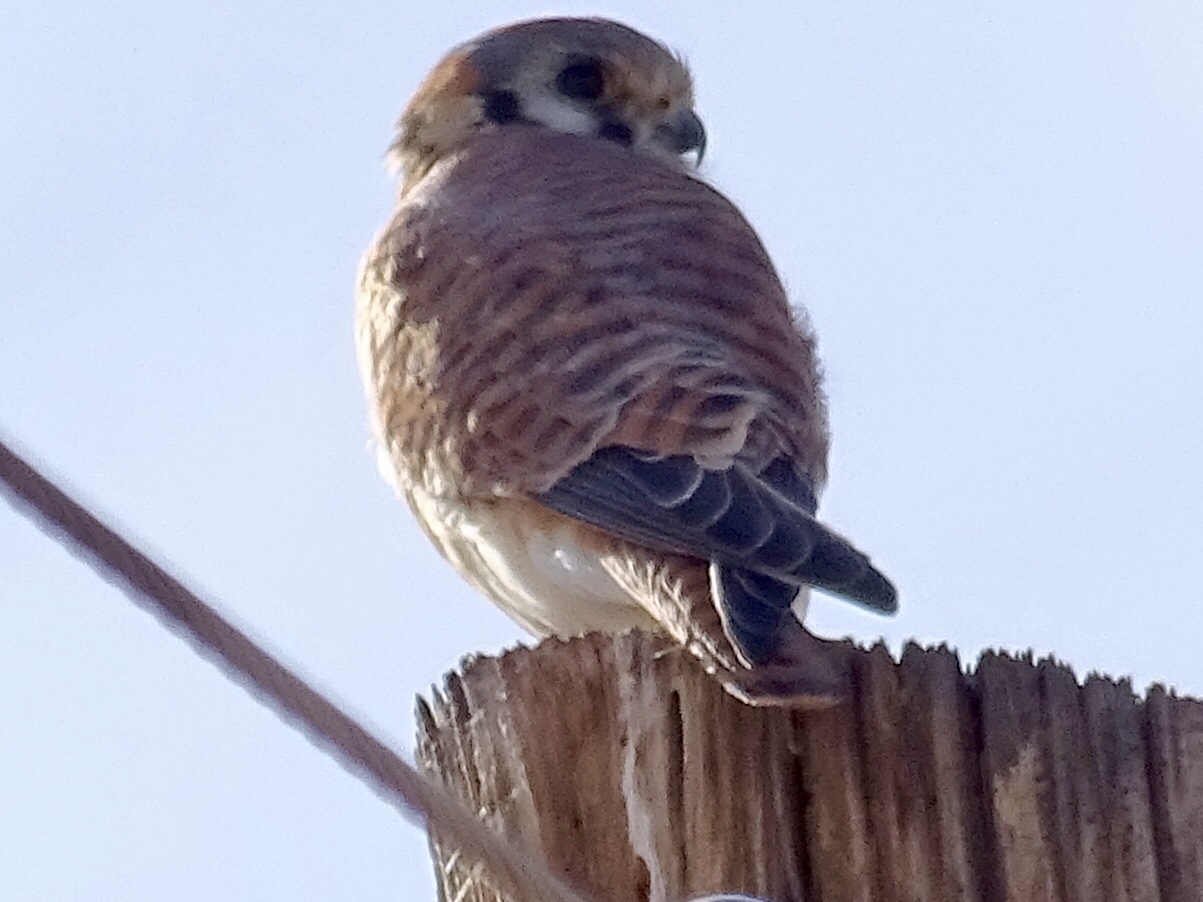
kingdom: Animalia
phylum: Chordata
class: Aves
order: Falconiformes
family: Falconidae
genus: Falco
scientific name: Falco sparverius
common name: American kestrel
